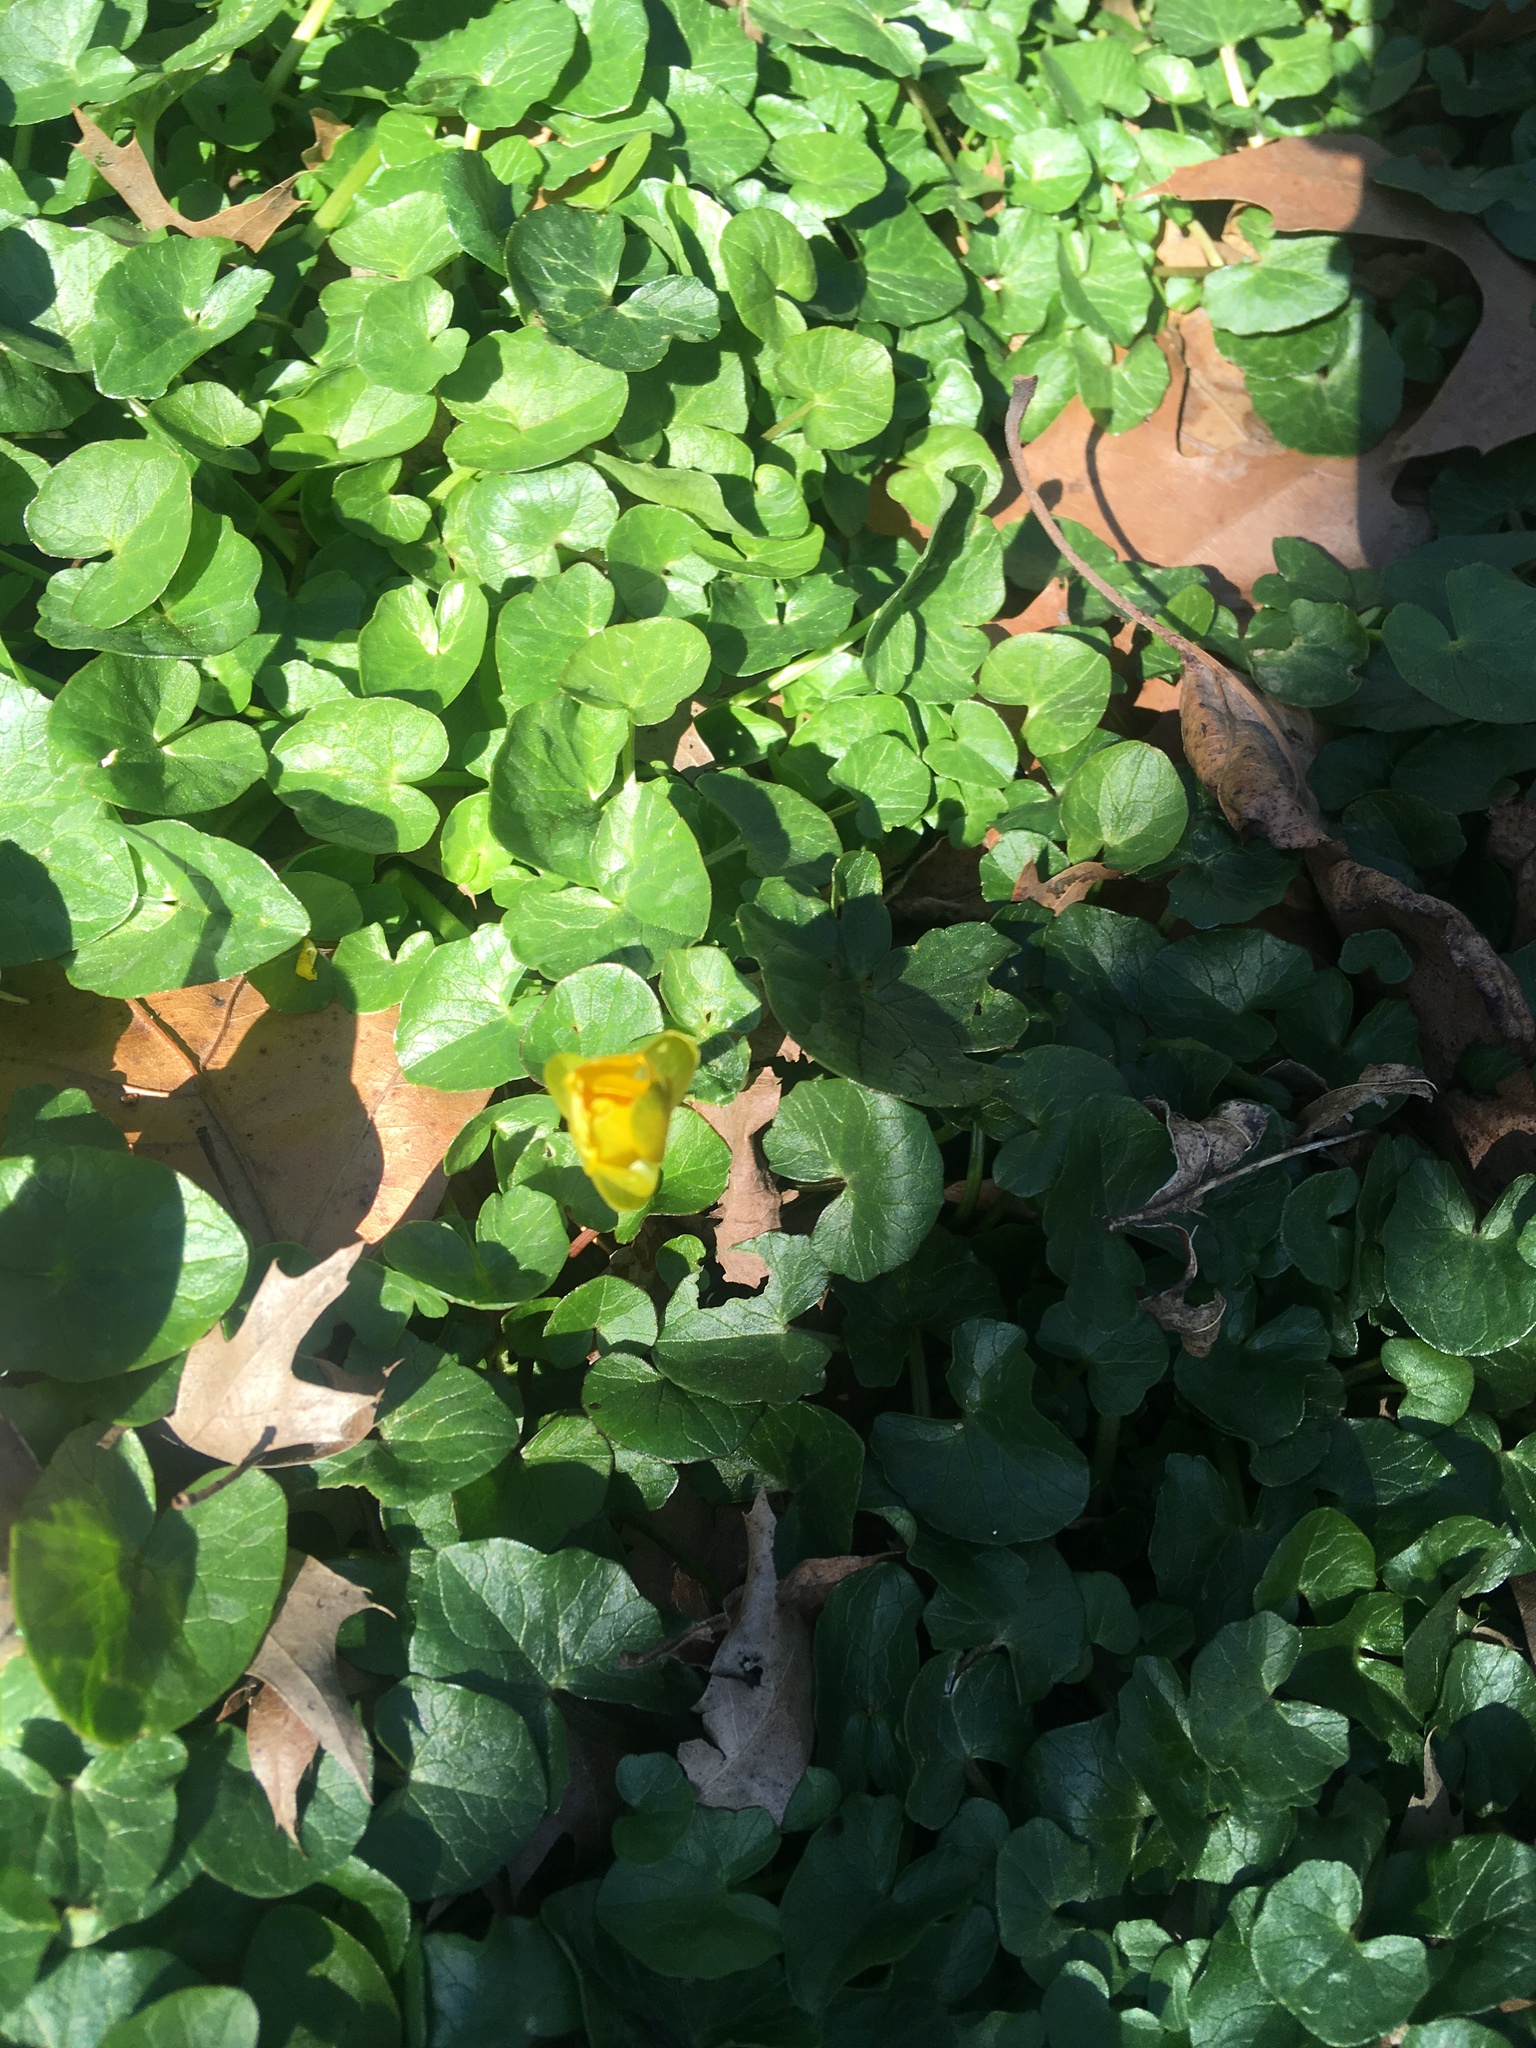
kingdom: Plantae
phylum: Tracheophyta
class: Magnoliopsida
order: Ranunculales
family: Ranunculaceae
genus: Ficaria
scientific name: Ficaria verna
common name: Lesser celandine
